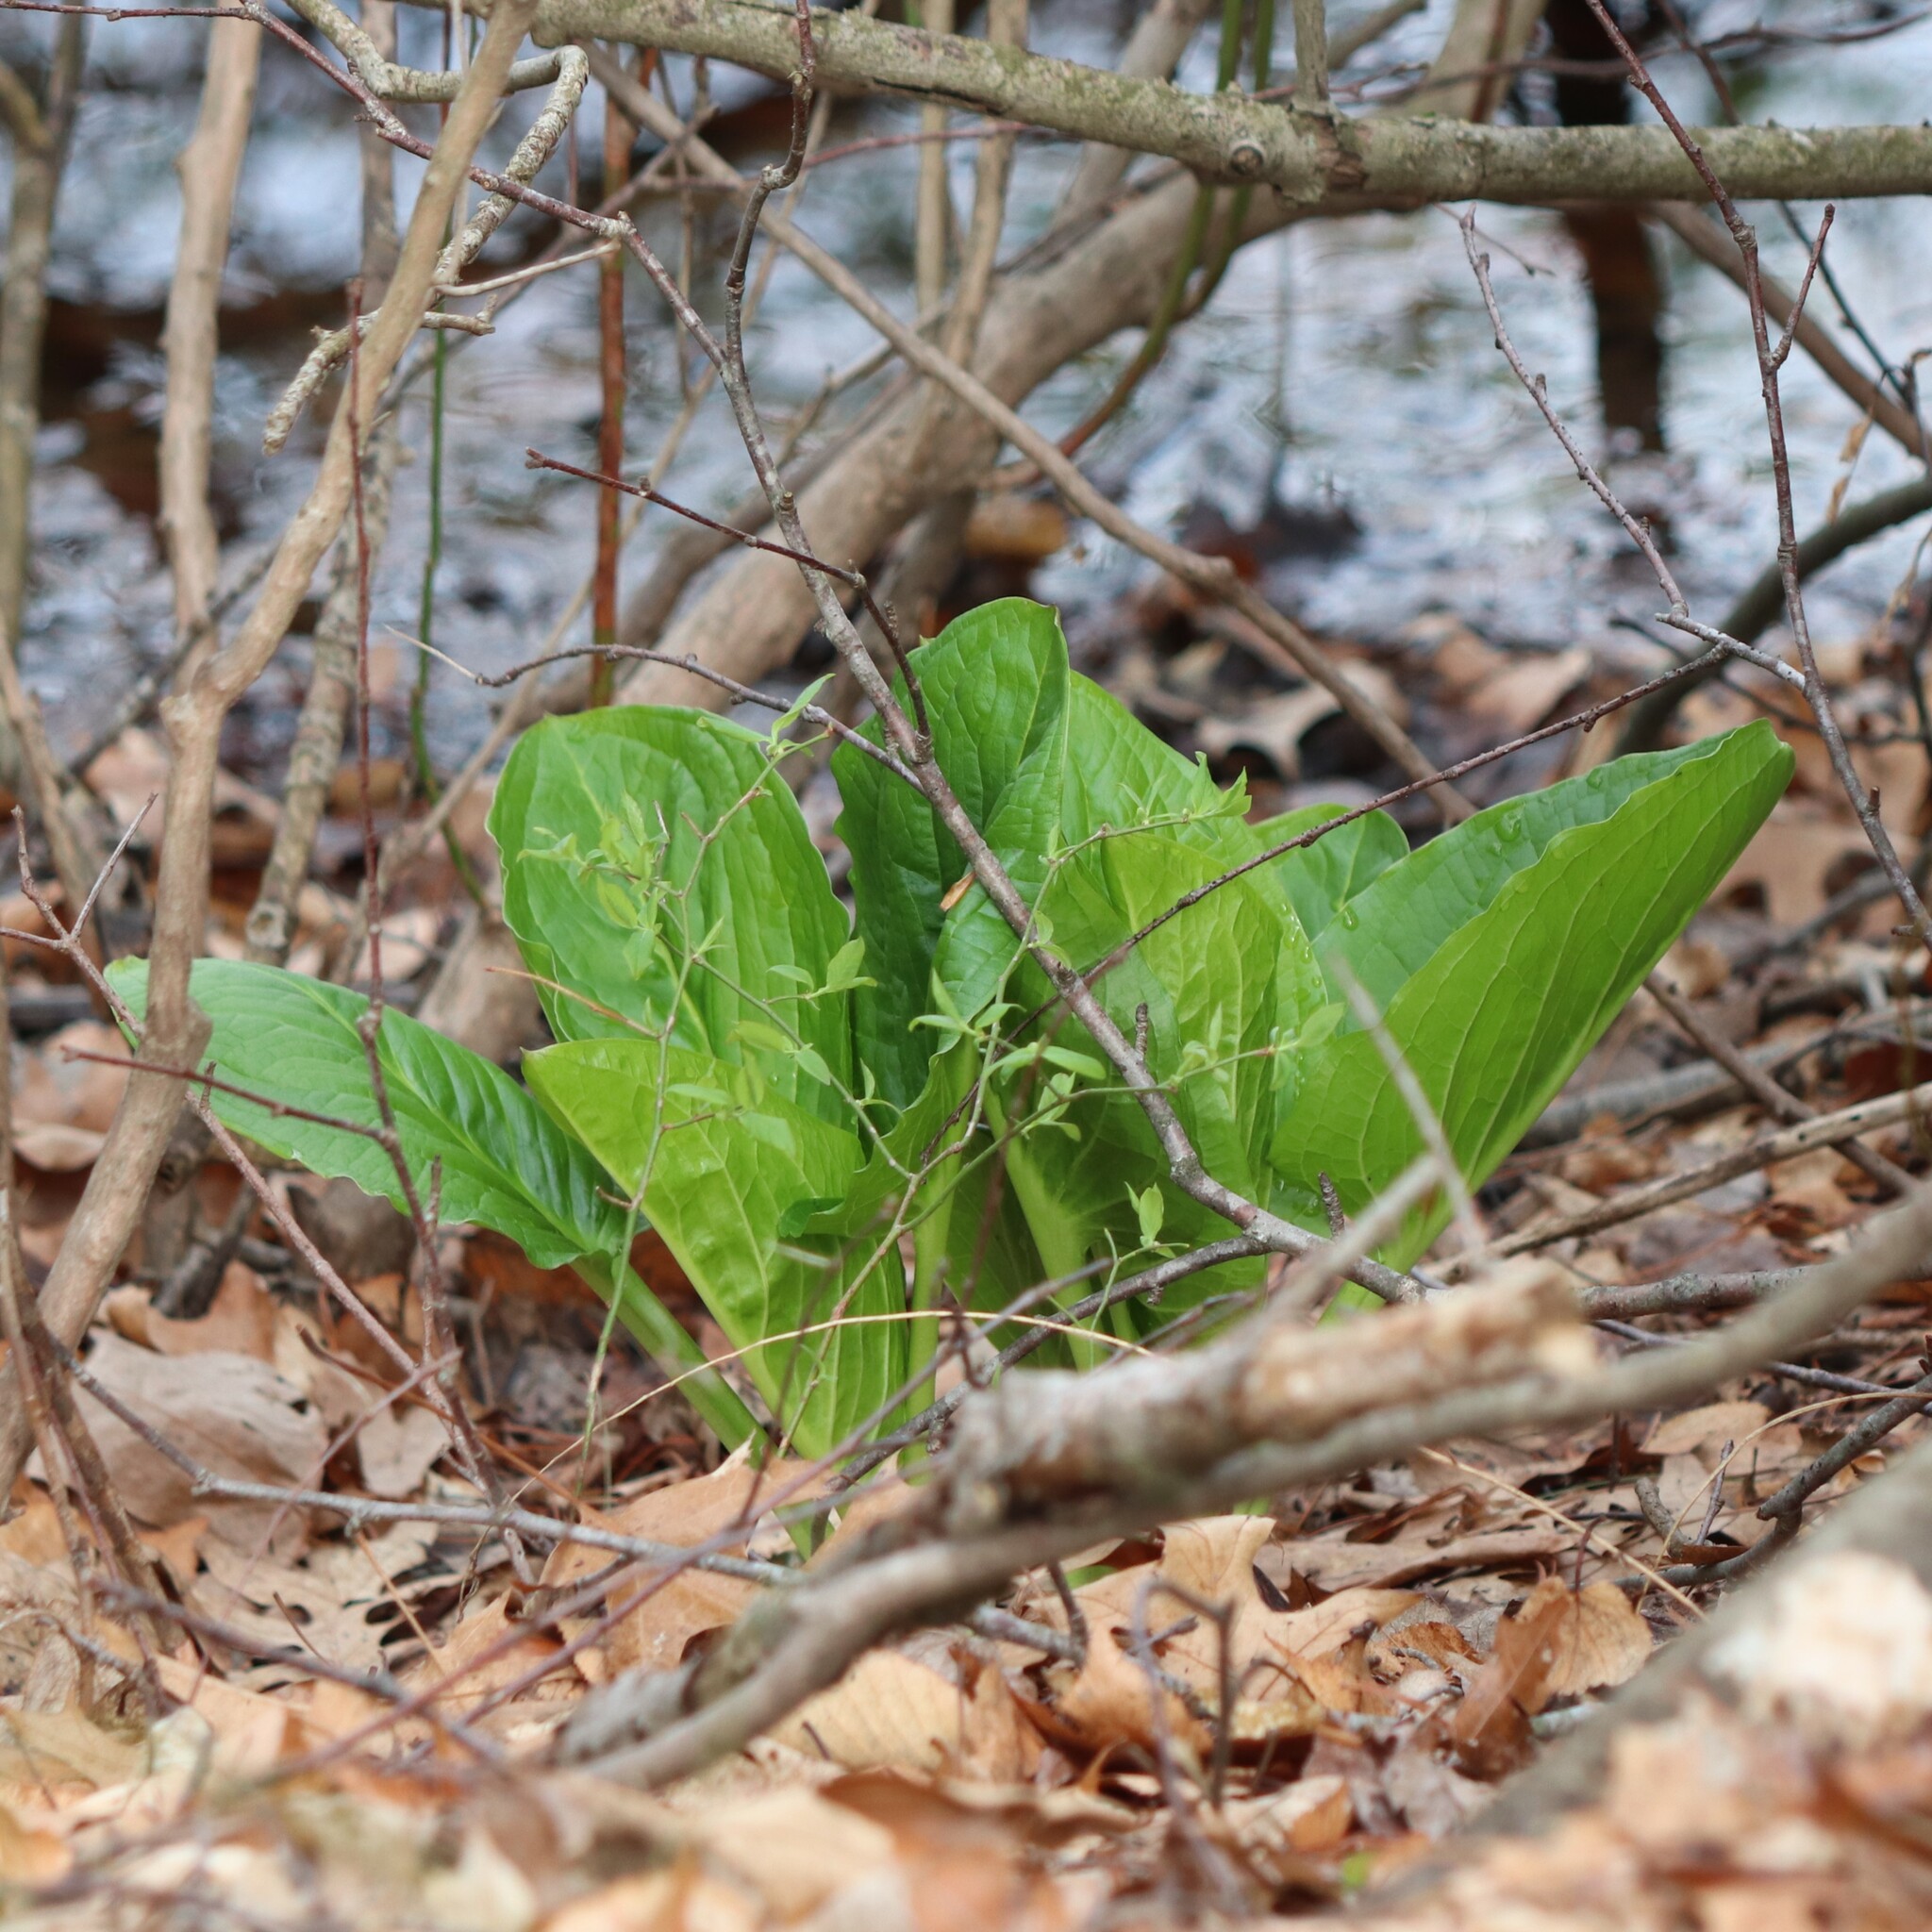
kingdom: Plantae
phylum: Tracheophyta
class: Liliopsida
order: Alismatales
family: Araceae
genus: Symplocarpus
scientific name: Symplocarpus foetidus
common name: Eastern skunk cabbage
